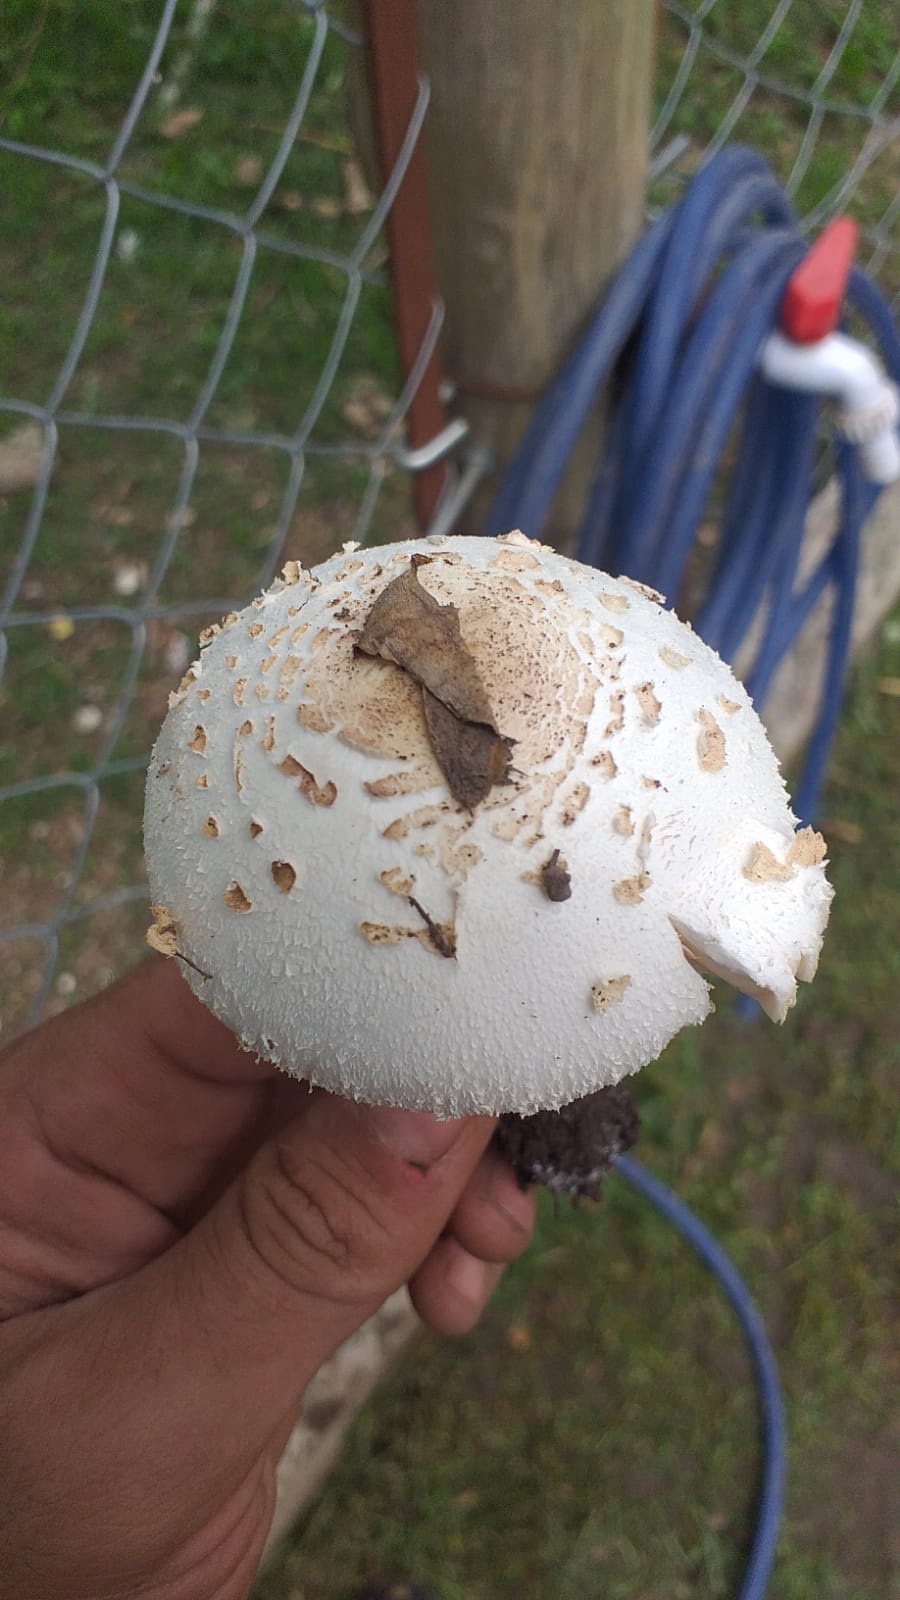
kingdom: Fungi
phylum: Basidiomycota
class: Agaricomycetes
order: Agaricales
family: Agaricaceae
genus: Chlorophyllum
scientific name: Chlorophyllum hortense
